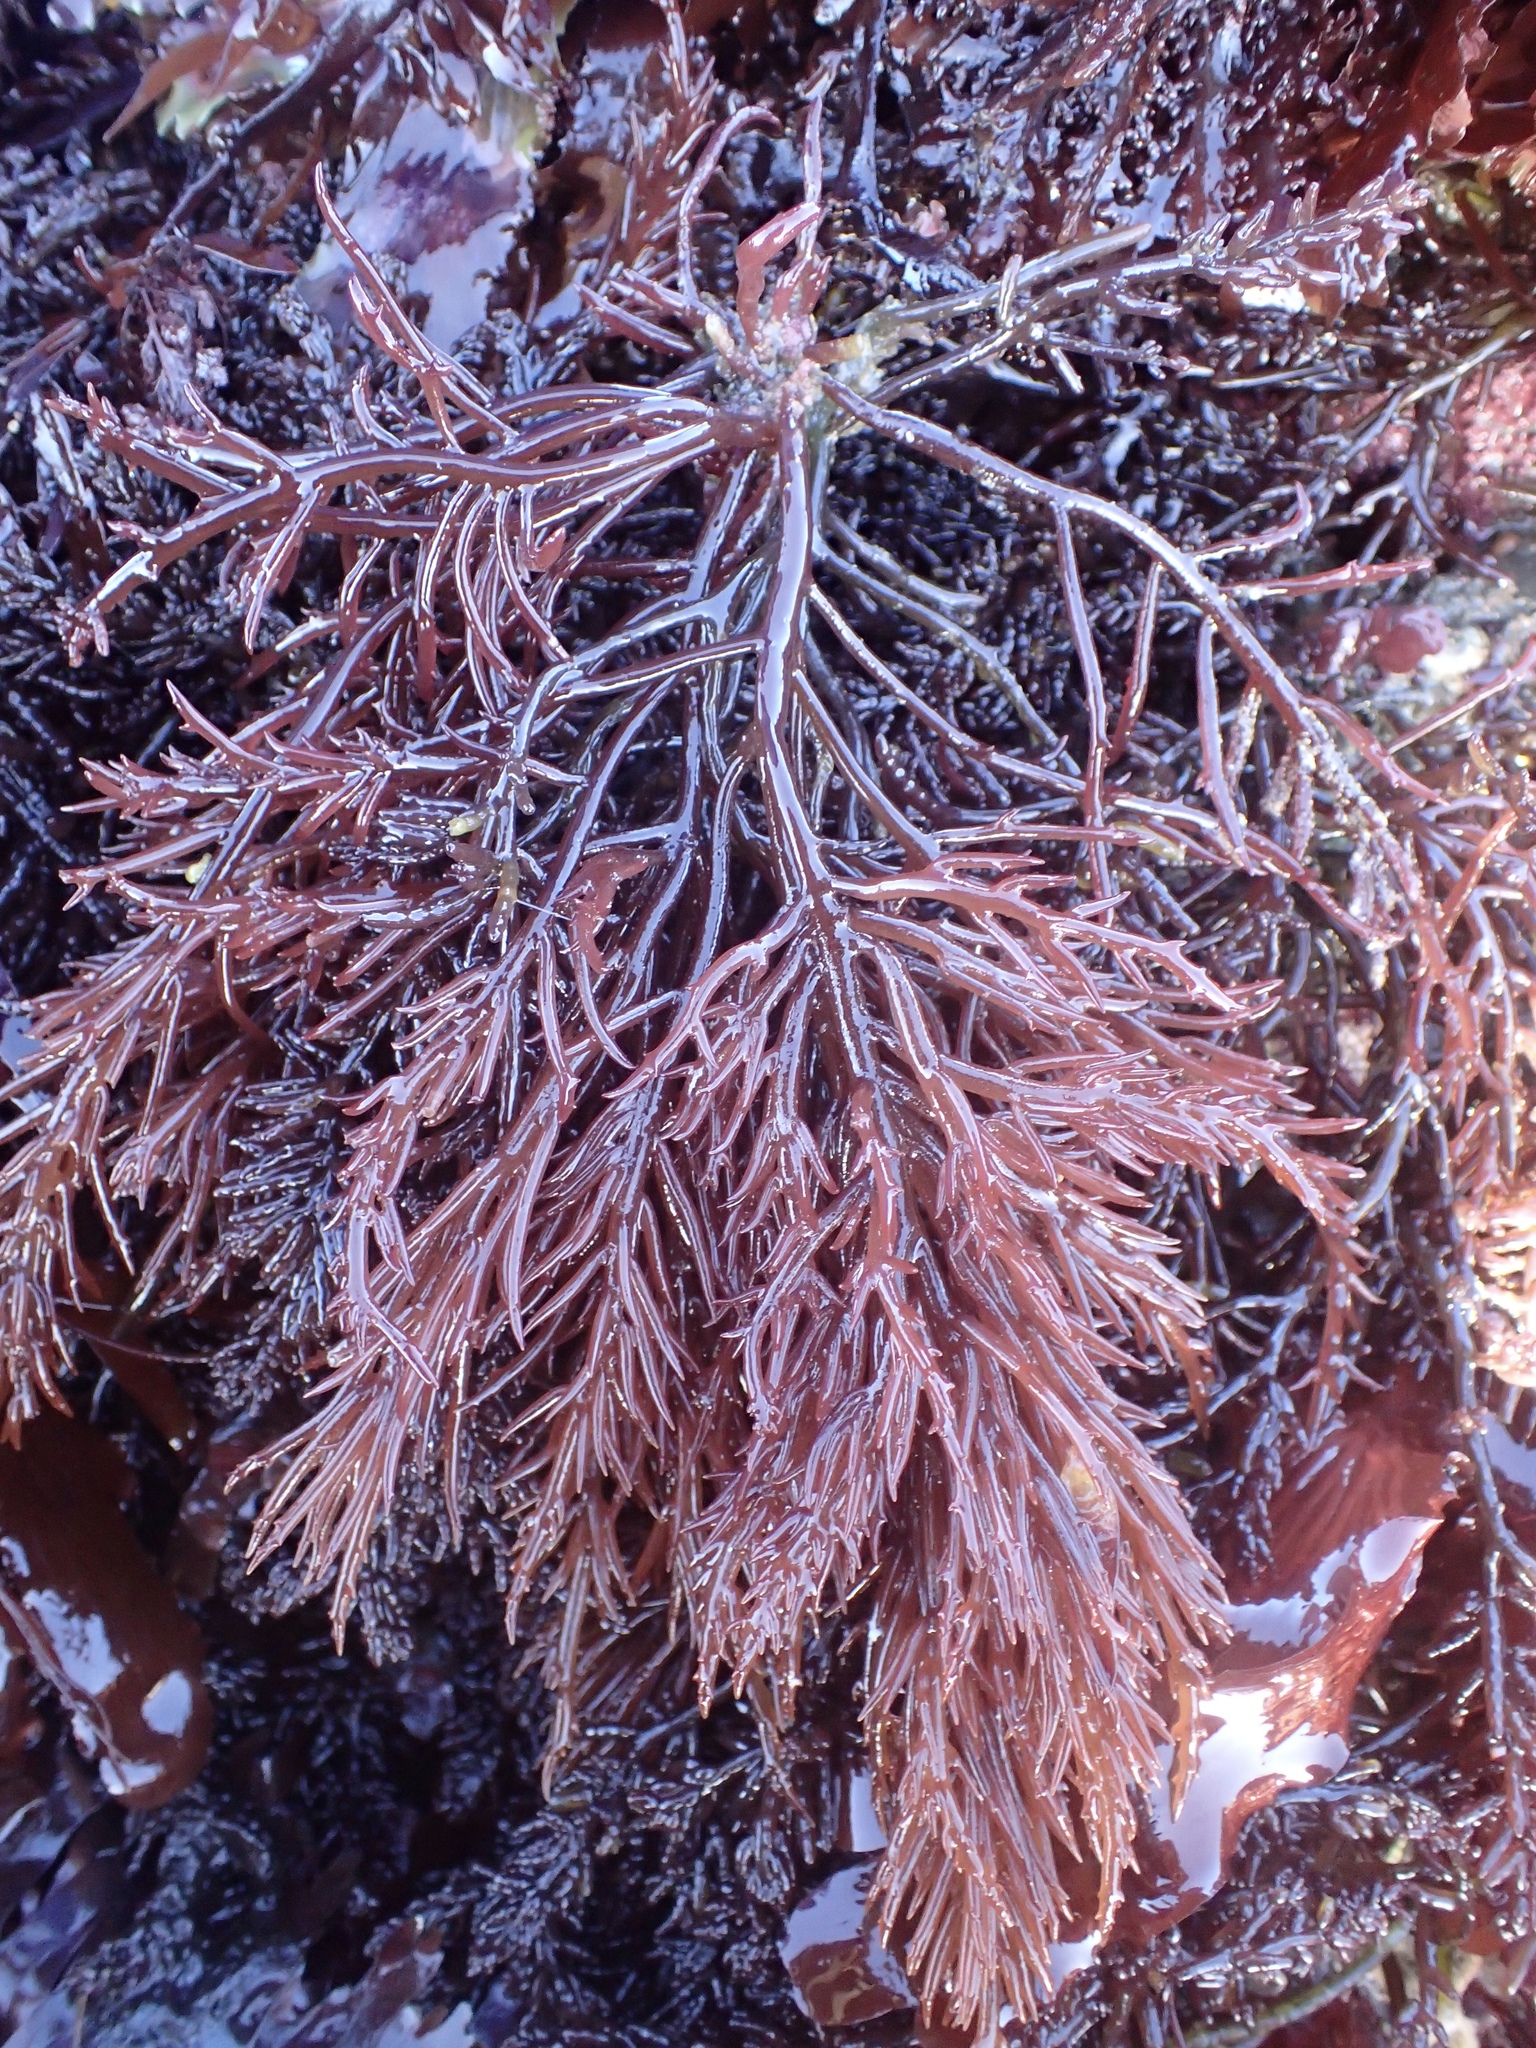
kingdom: Plantae
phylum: Rhodophyta
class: Florideophyceae
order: Gigartinales
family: Solieriaceae
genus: Sarcodiotheca
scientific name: Sarcodiotheca gaudichaudii
